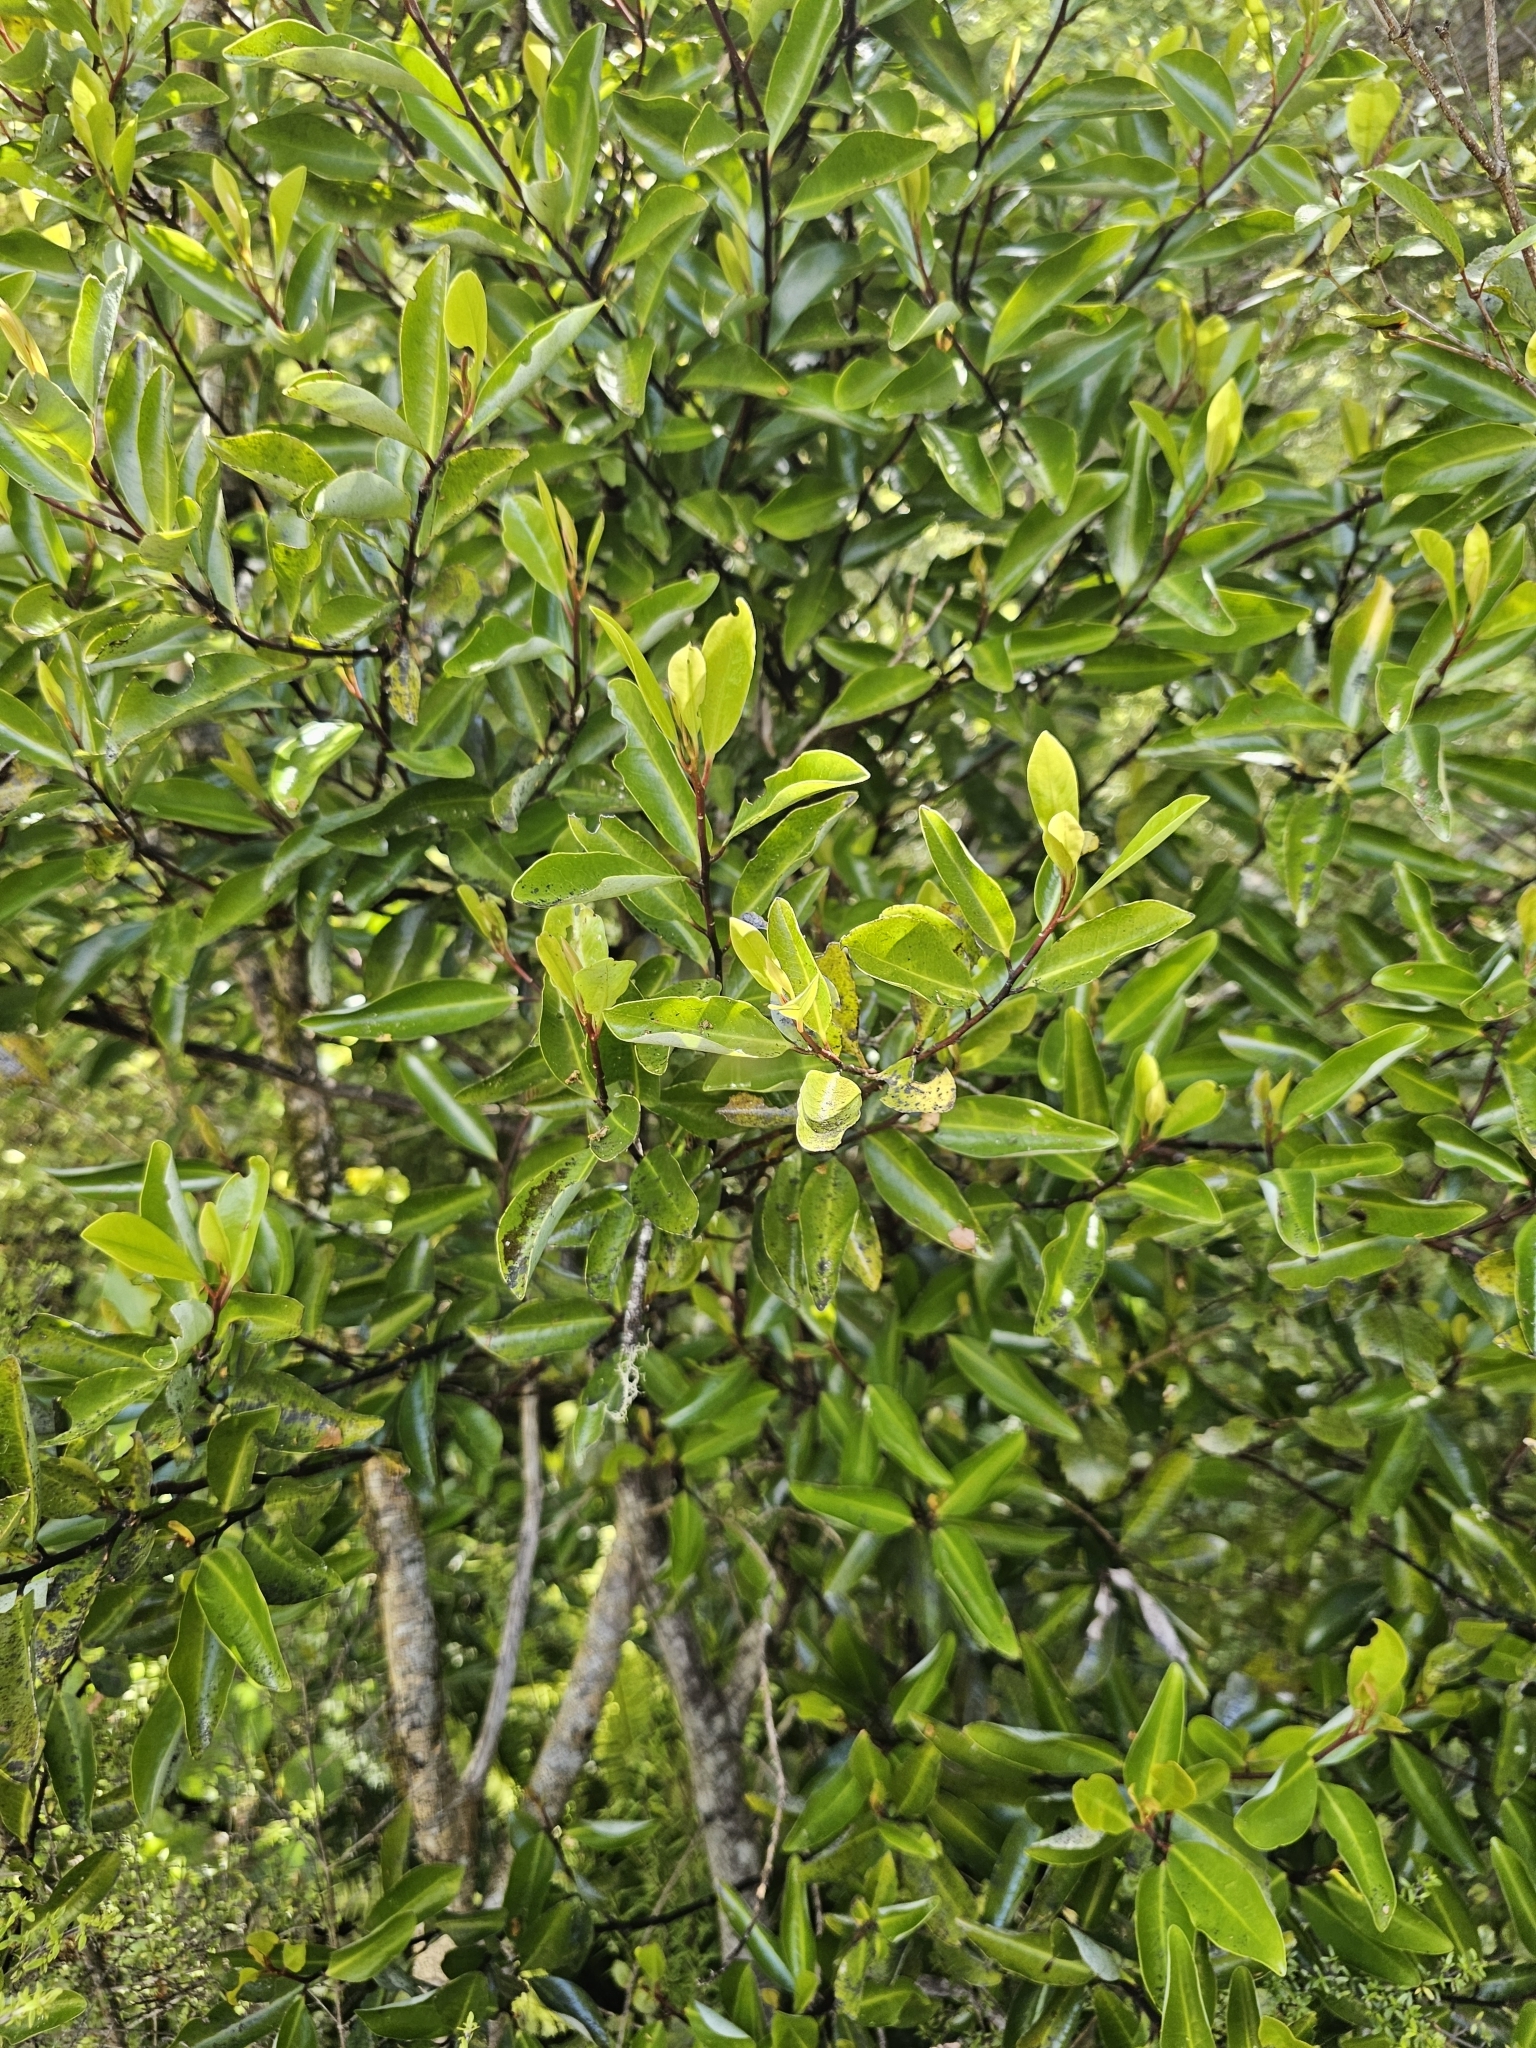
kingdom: Plantae
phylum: Tracheophyta
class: Magnoliopsida
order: Canellales
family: Winteraceae
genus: Pseudowintera
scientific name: Pseudowintera axillaris
